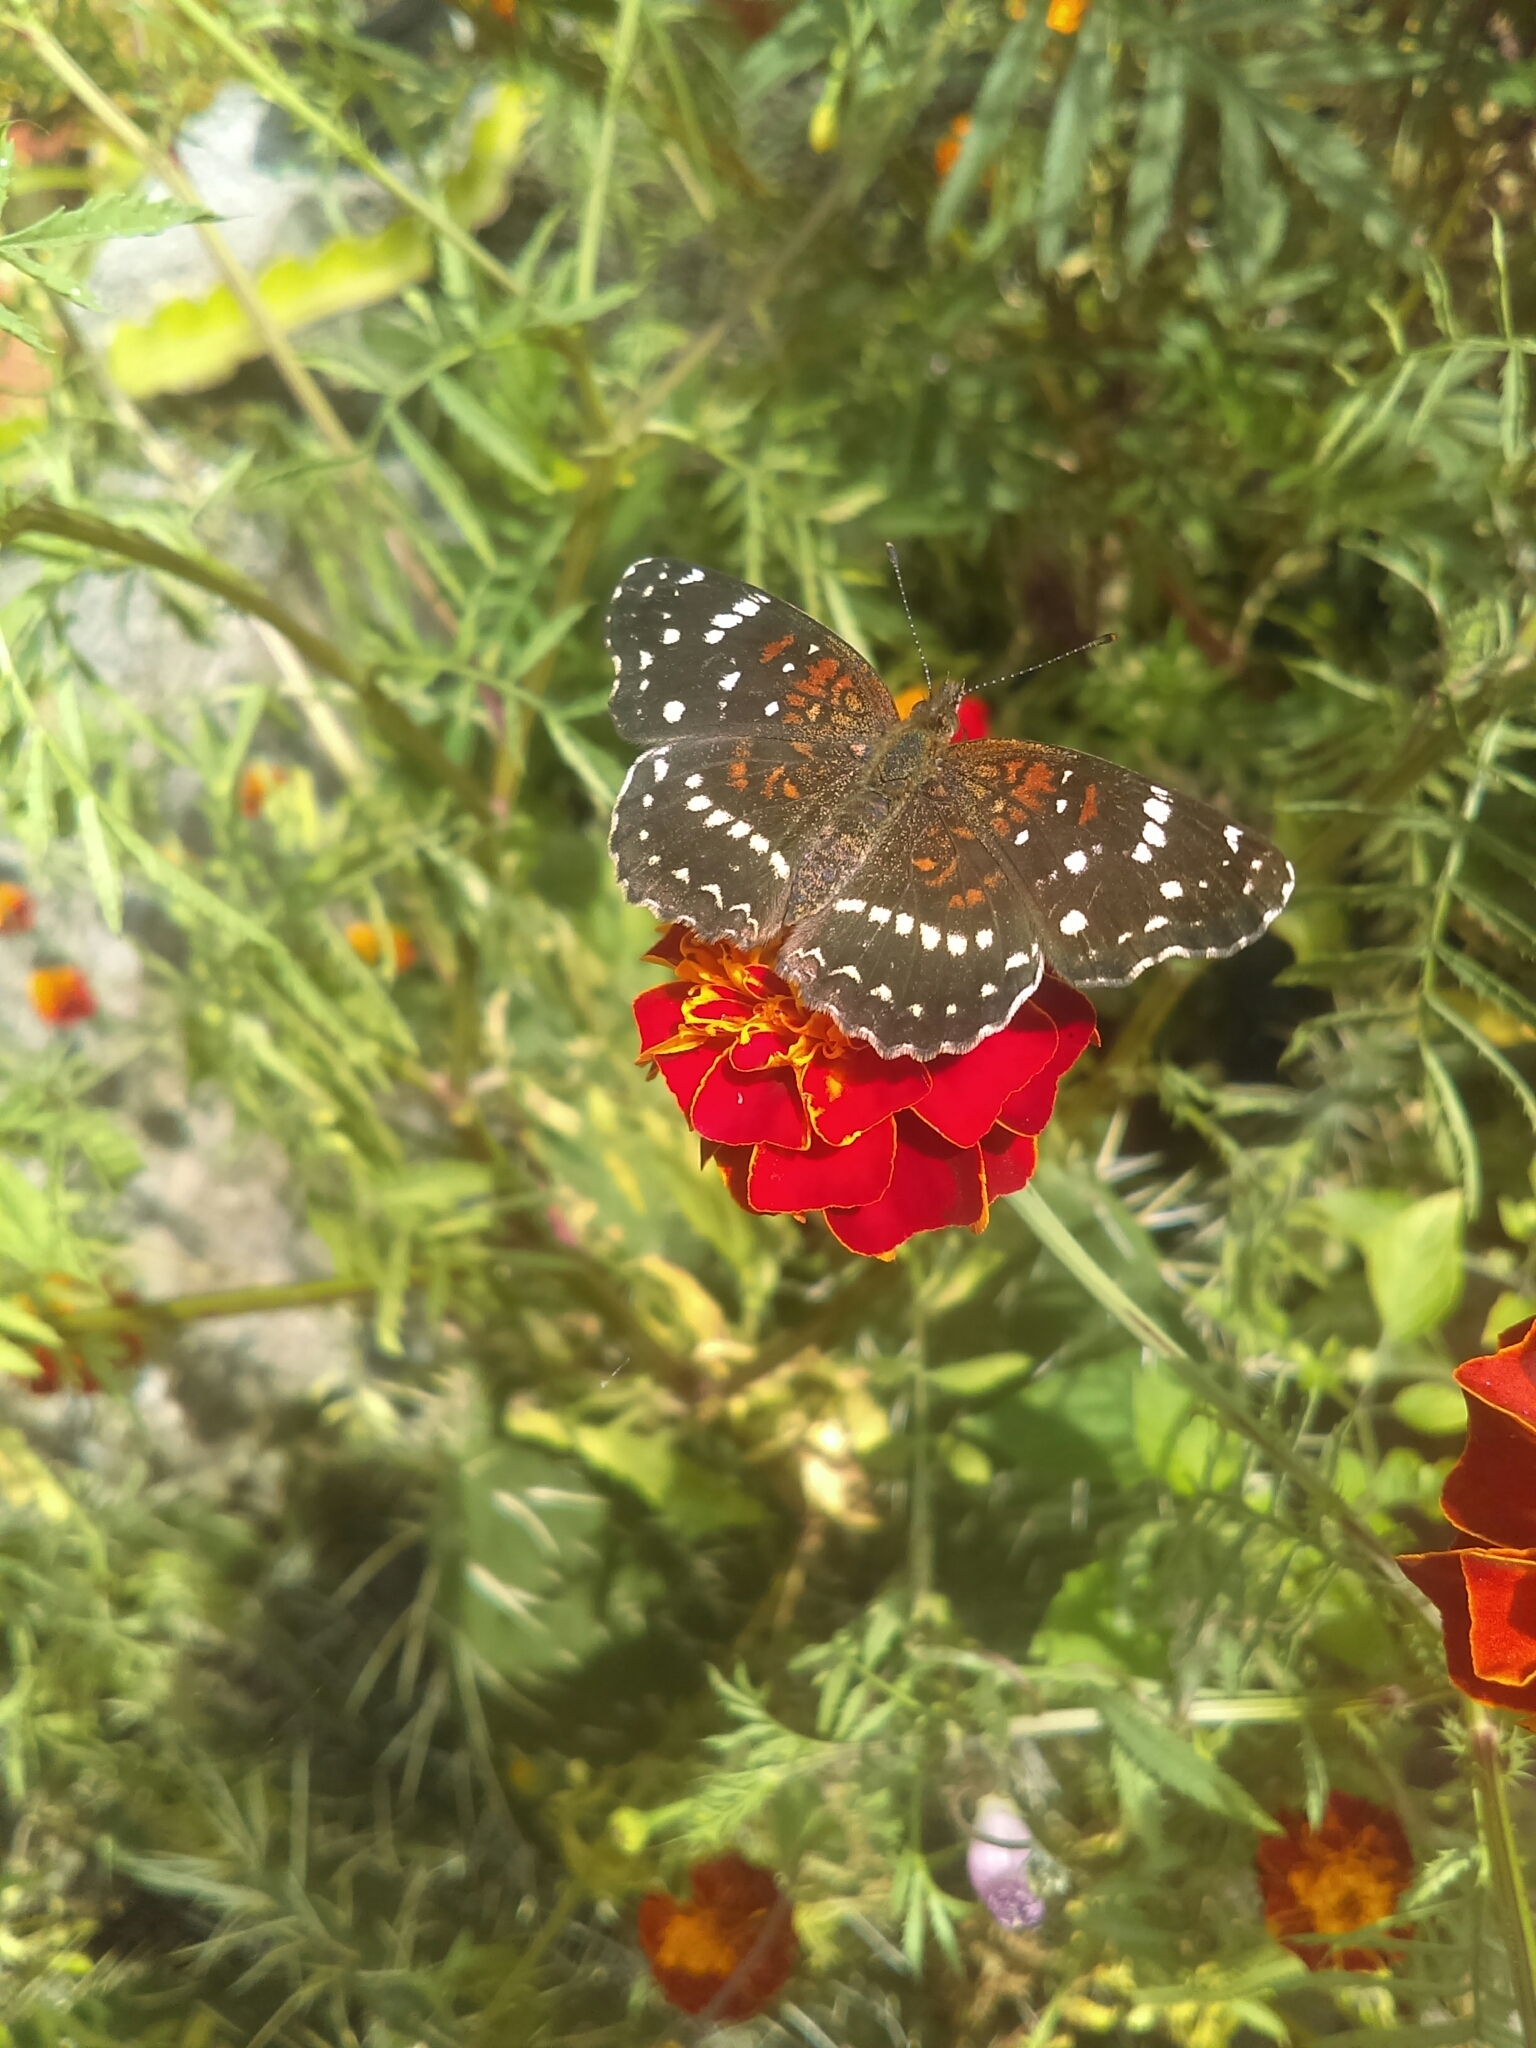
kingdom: Animalia
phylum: Arthropoda
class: Insecta
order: Lepidoptera
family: Nymphalidae
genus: Anthanassa
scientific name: Anthanassa texana
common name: Texan crescent
